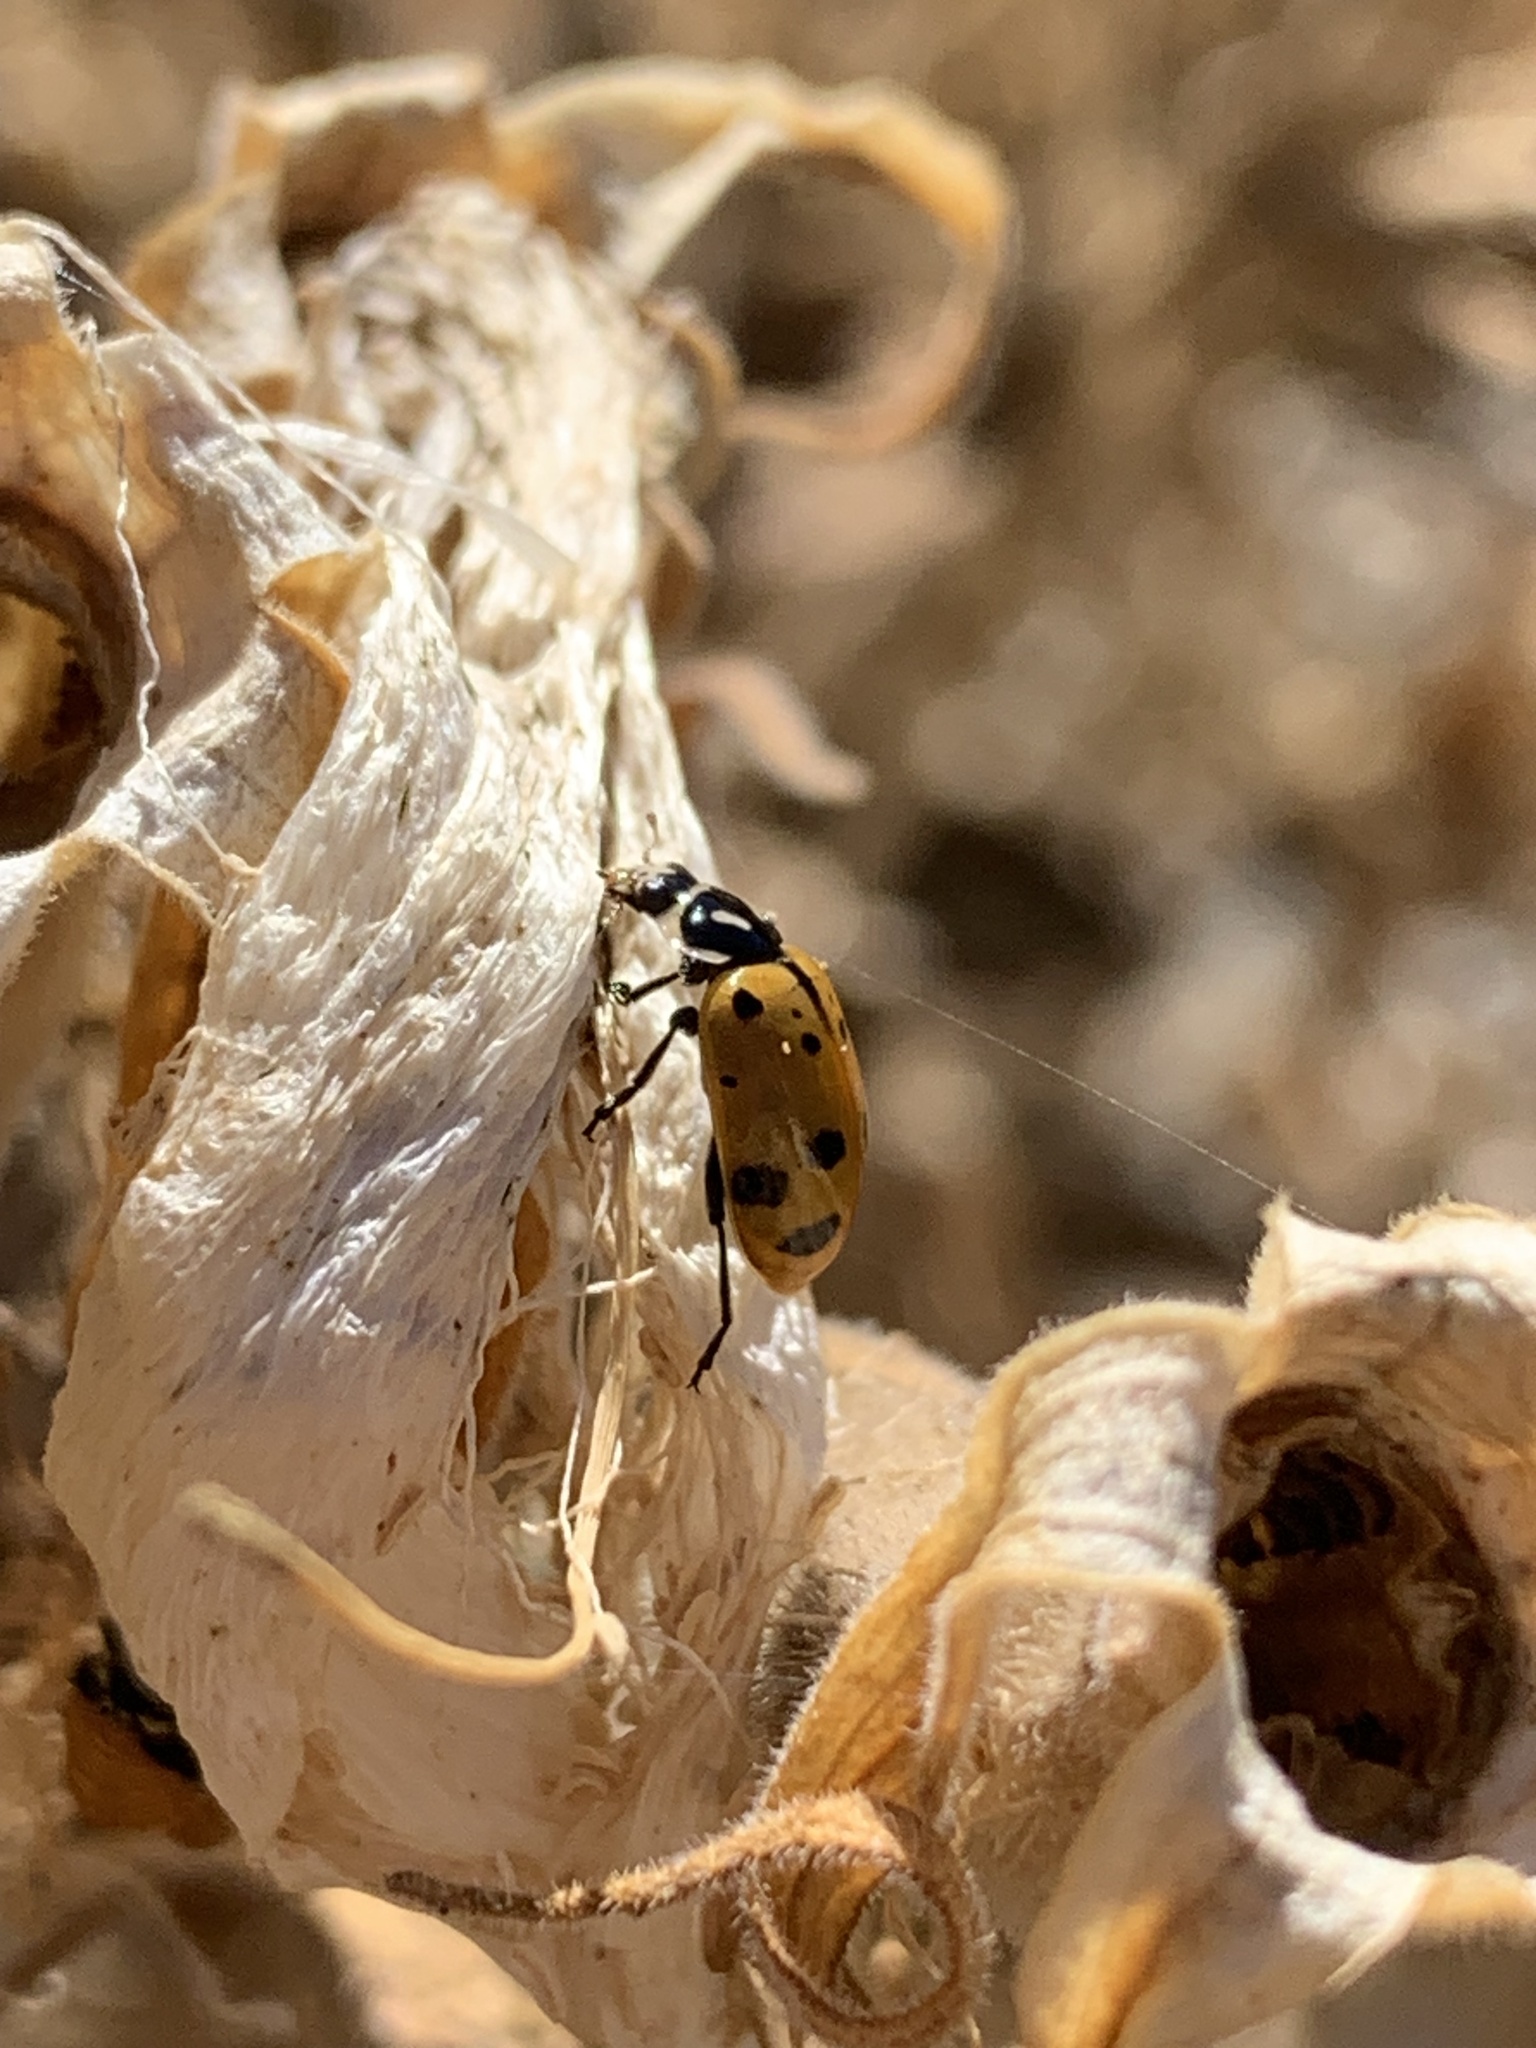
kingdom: Animalia
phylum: Arthropoda
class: Insecta
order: Coleoptera
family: Coccinellidae
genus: Hippodamia
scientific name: Hippodamia convergens
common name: Convergent lady beetle
